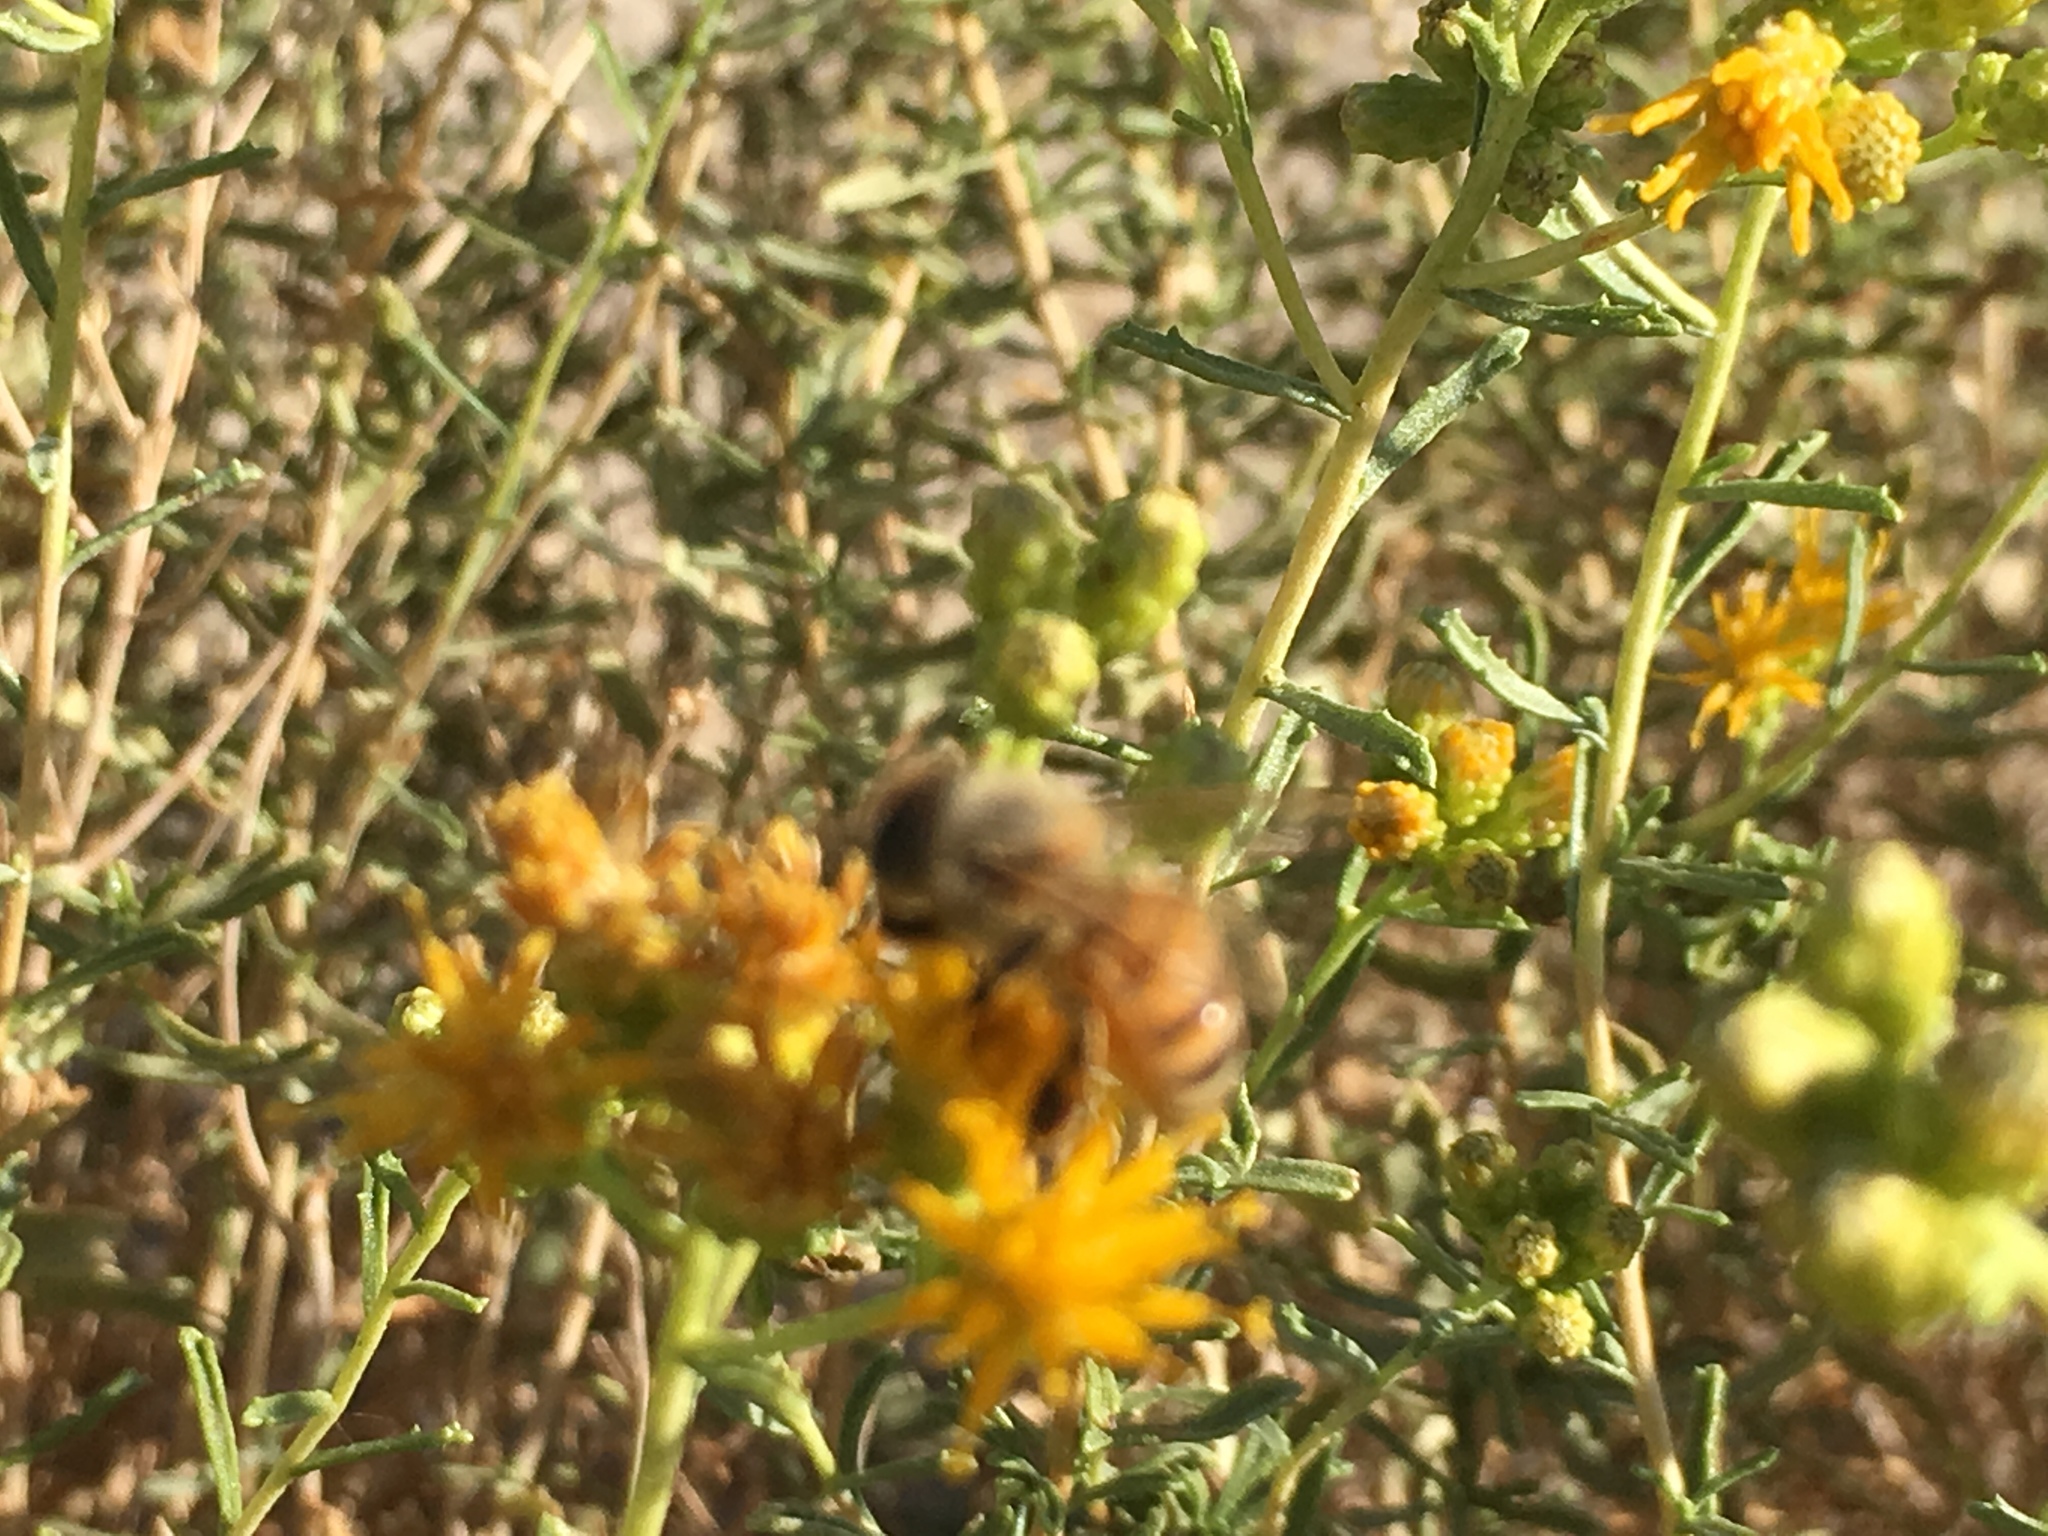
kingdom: Animalia
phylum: Arthropoda
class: Insecta
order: Hymenoptera
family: Apidae
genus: Apis
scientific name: Apis mellifera
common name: Honey bee
